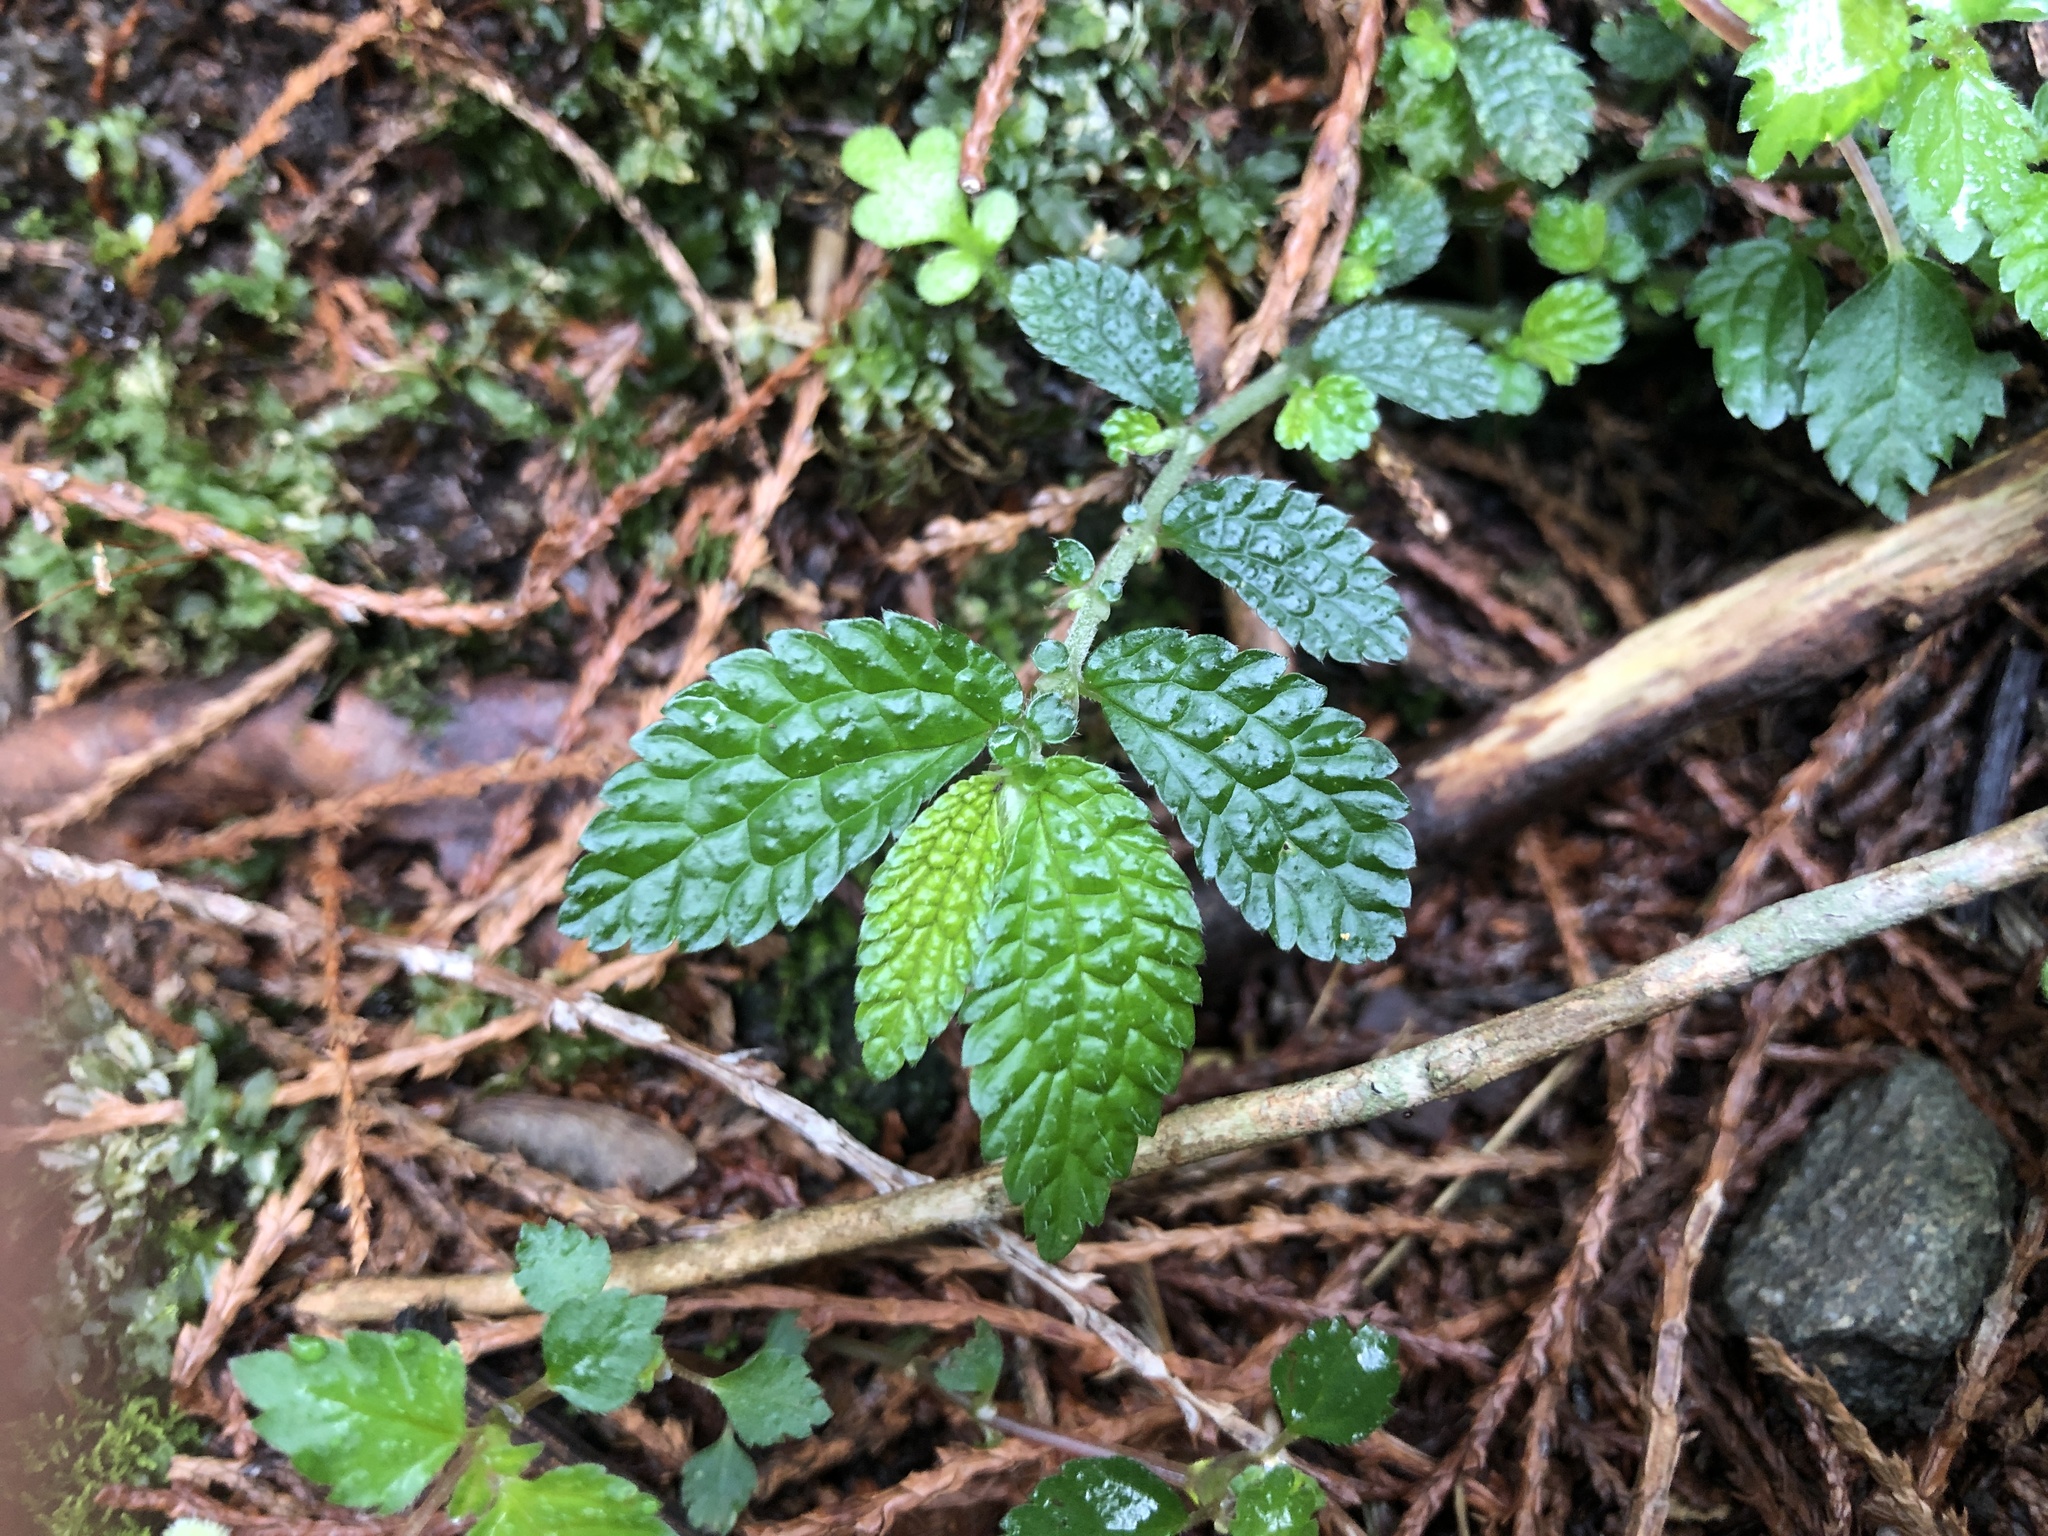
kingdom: Plantae
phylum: Tracheophyta
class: Magnoliopsida
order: Rosales
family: Urticaceae
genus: Elatostema
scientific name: Elatostema parvum
